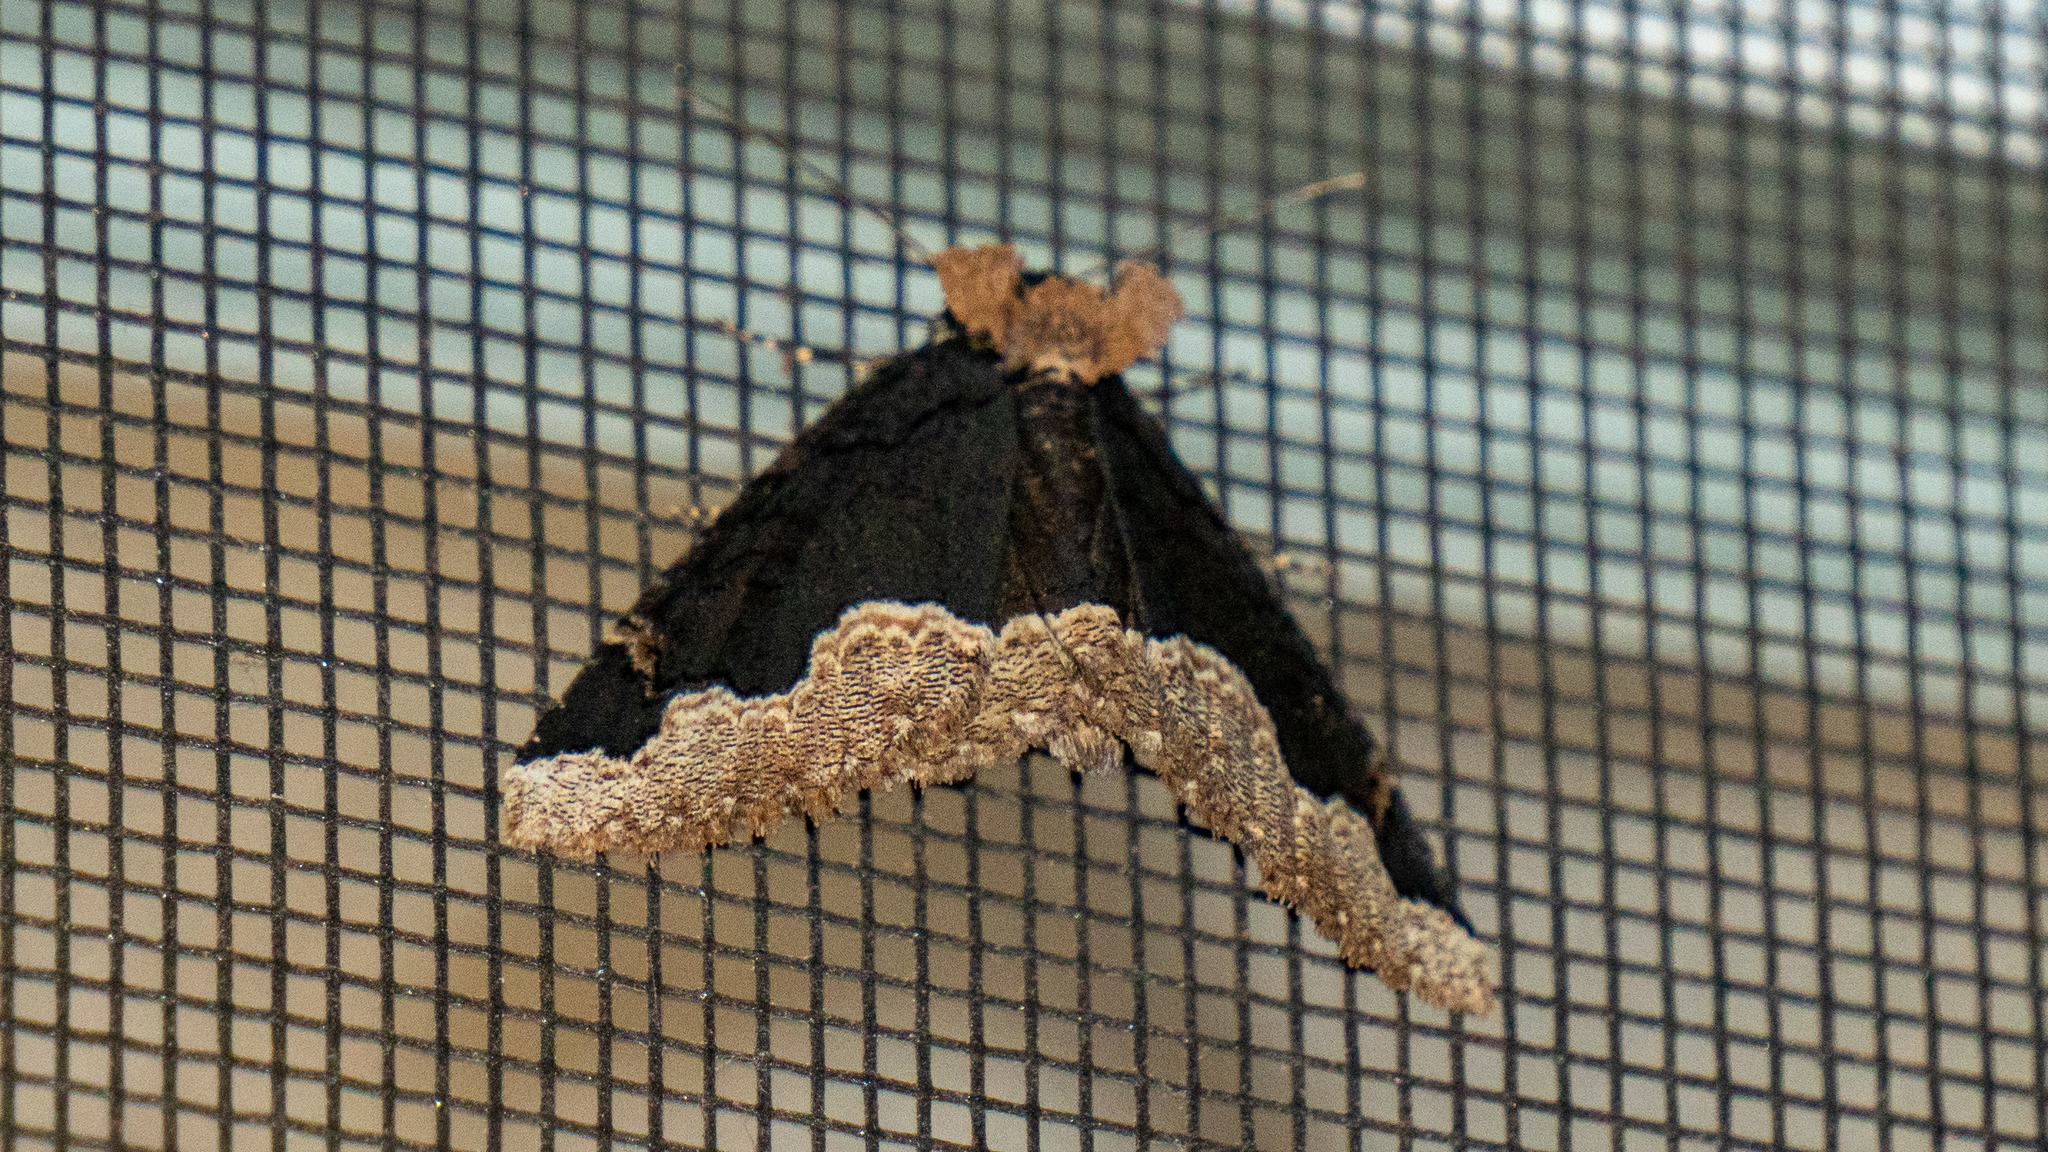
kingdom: Animalia
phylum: Arthropoda
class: Insecta
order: Lepidoptera
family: Erebidae
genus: Zale
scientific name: Zale horrida
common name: Horrid zale moth
